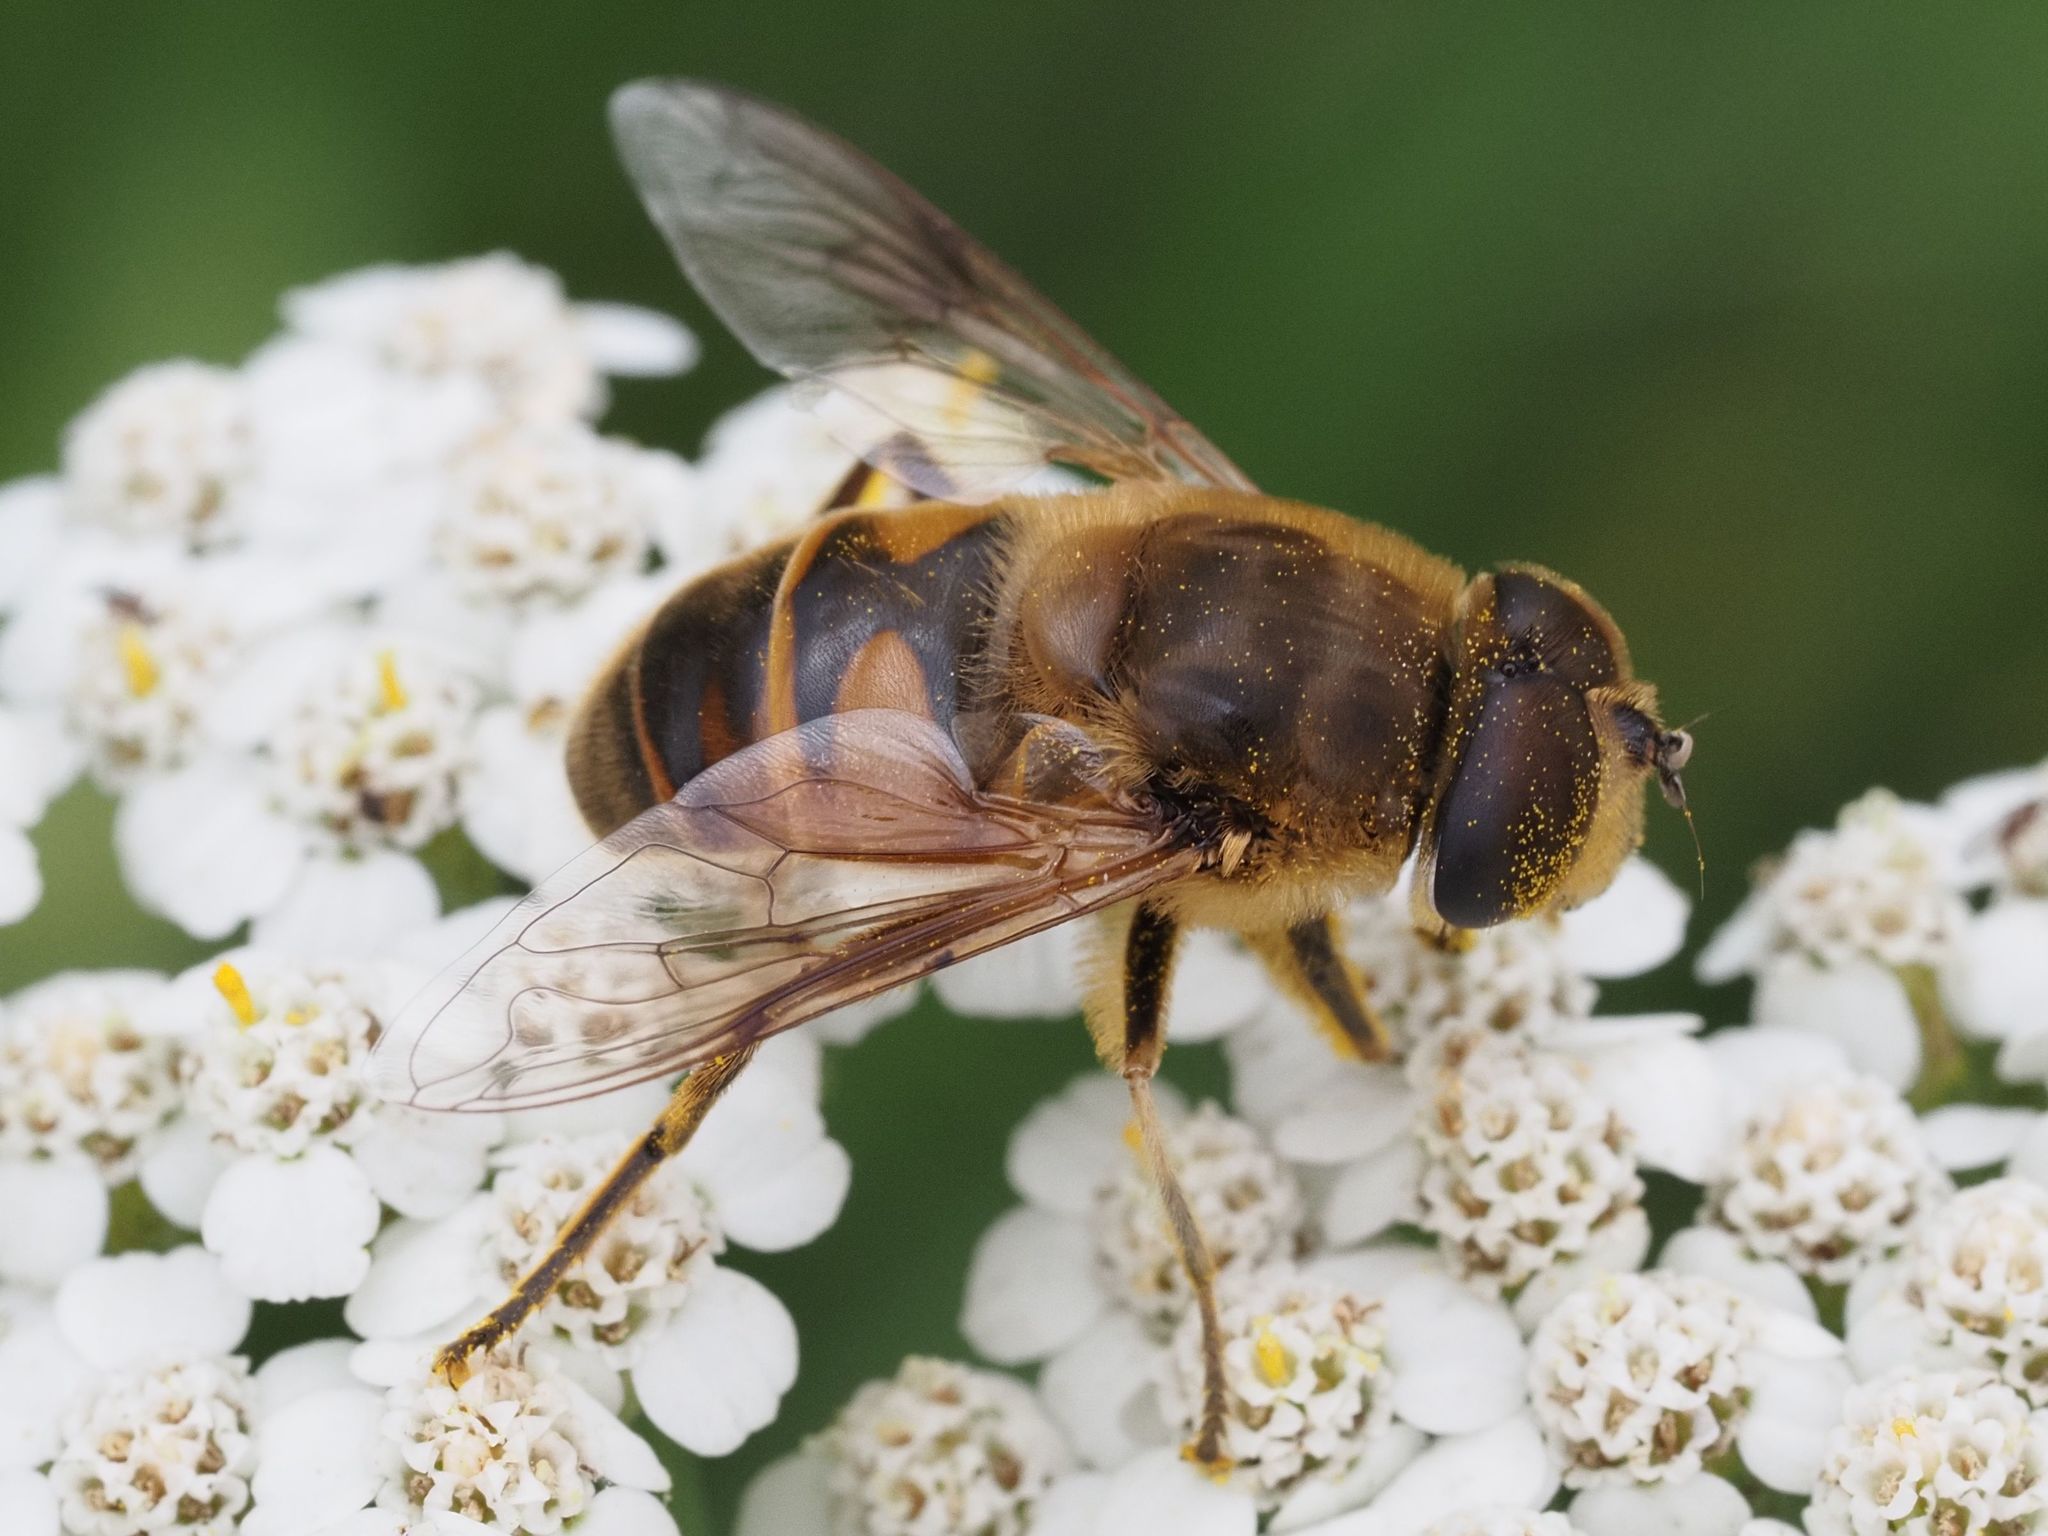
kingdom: Animalia
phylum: Arthropoda
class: Insecta
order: Diptera
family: Syrphidae
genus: Eristalis
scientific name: Eristalis tenax
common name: Drone fly
